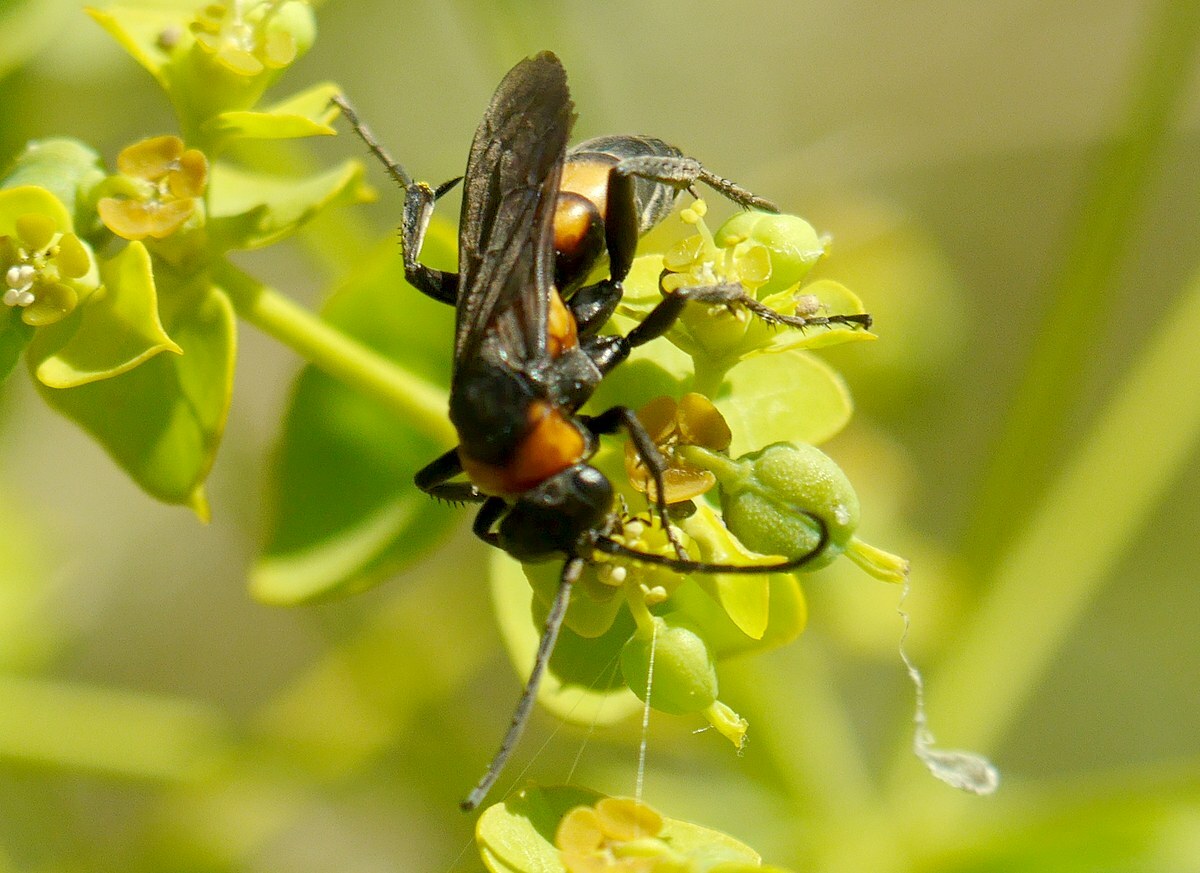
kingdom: Animalia
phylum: Arthropoda
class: Insecta
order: Hymenoptera
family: Pompilidae
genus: Eoferreola
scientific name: Eoferreola erythraea
